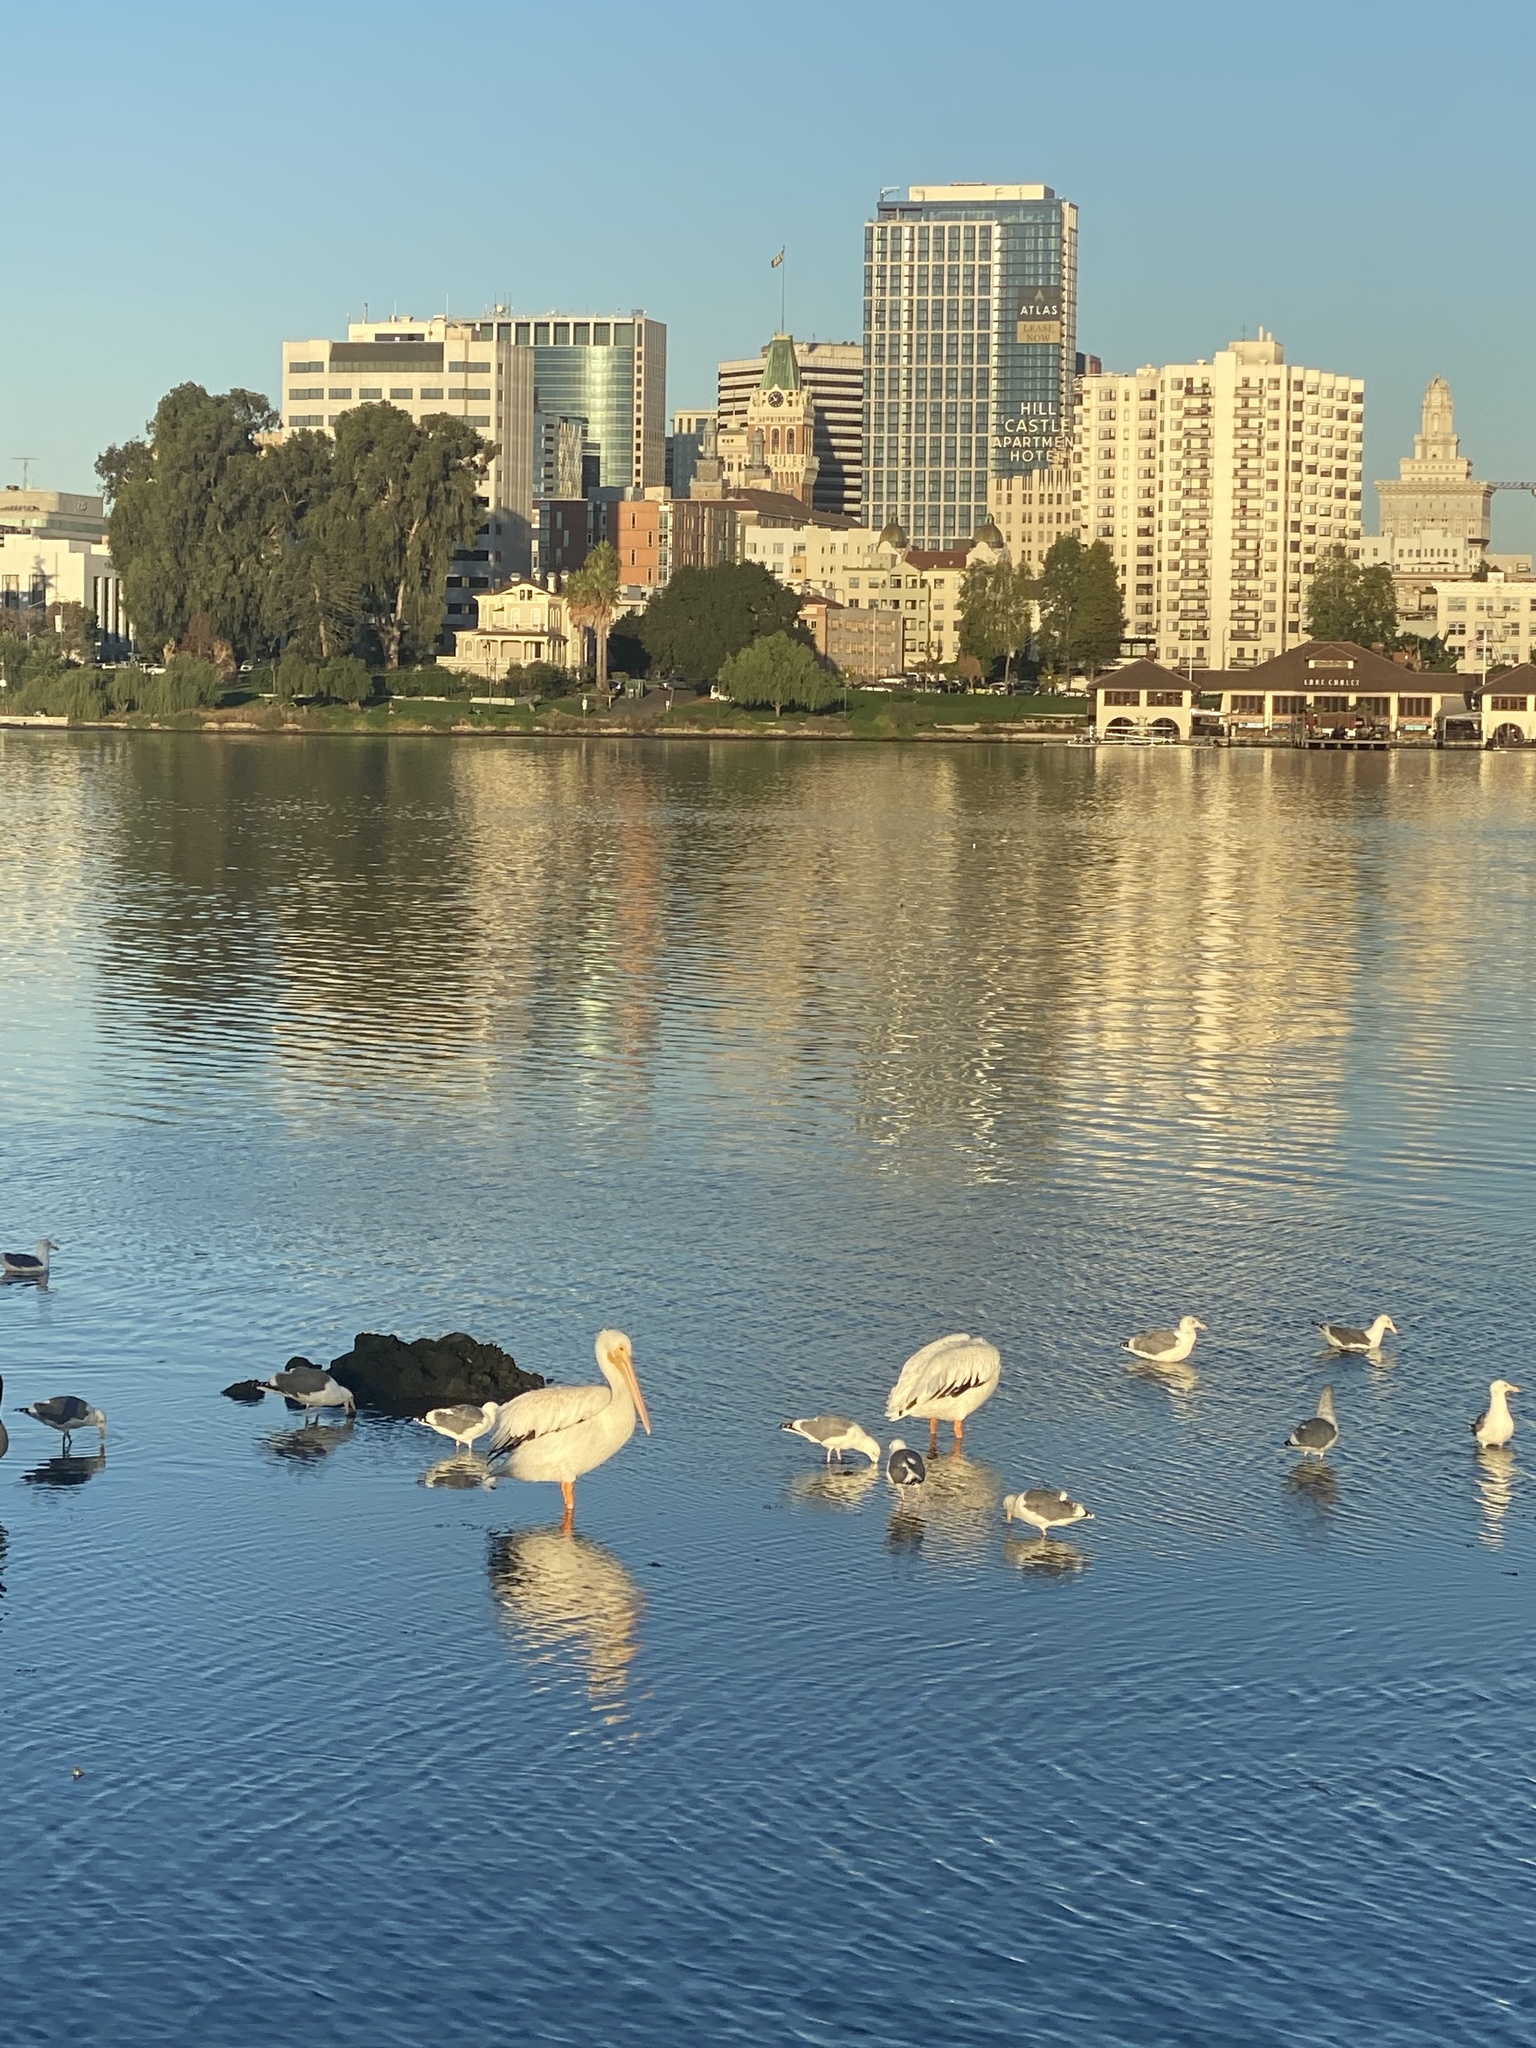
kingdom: Animalia
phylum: Chordata
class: Aves
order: Pelecaniformes
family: Pelecanidae
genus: Pelecanus
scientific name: Pelecanus erythrorhynchos
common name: American white pelican
